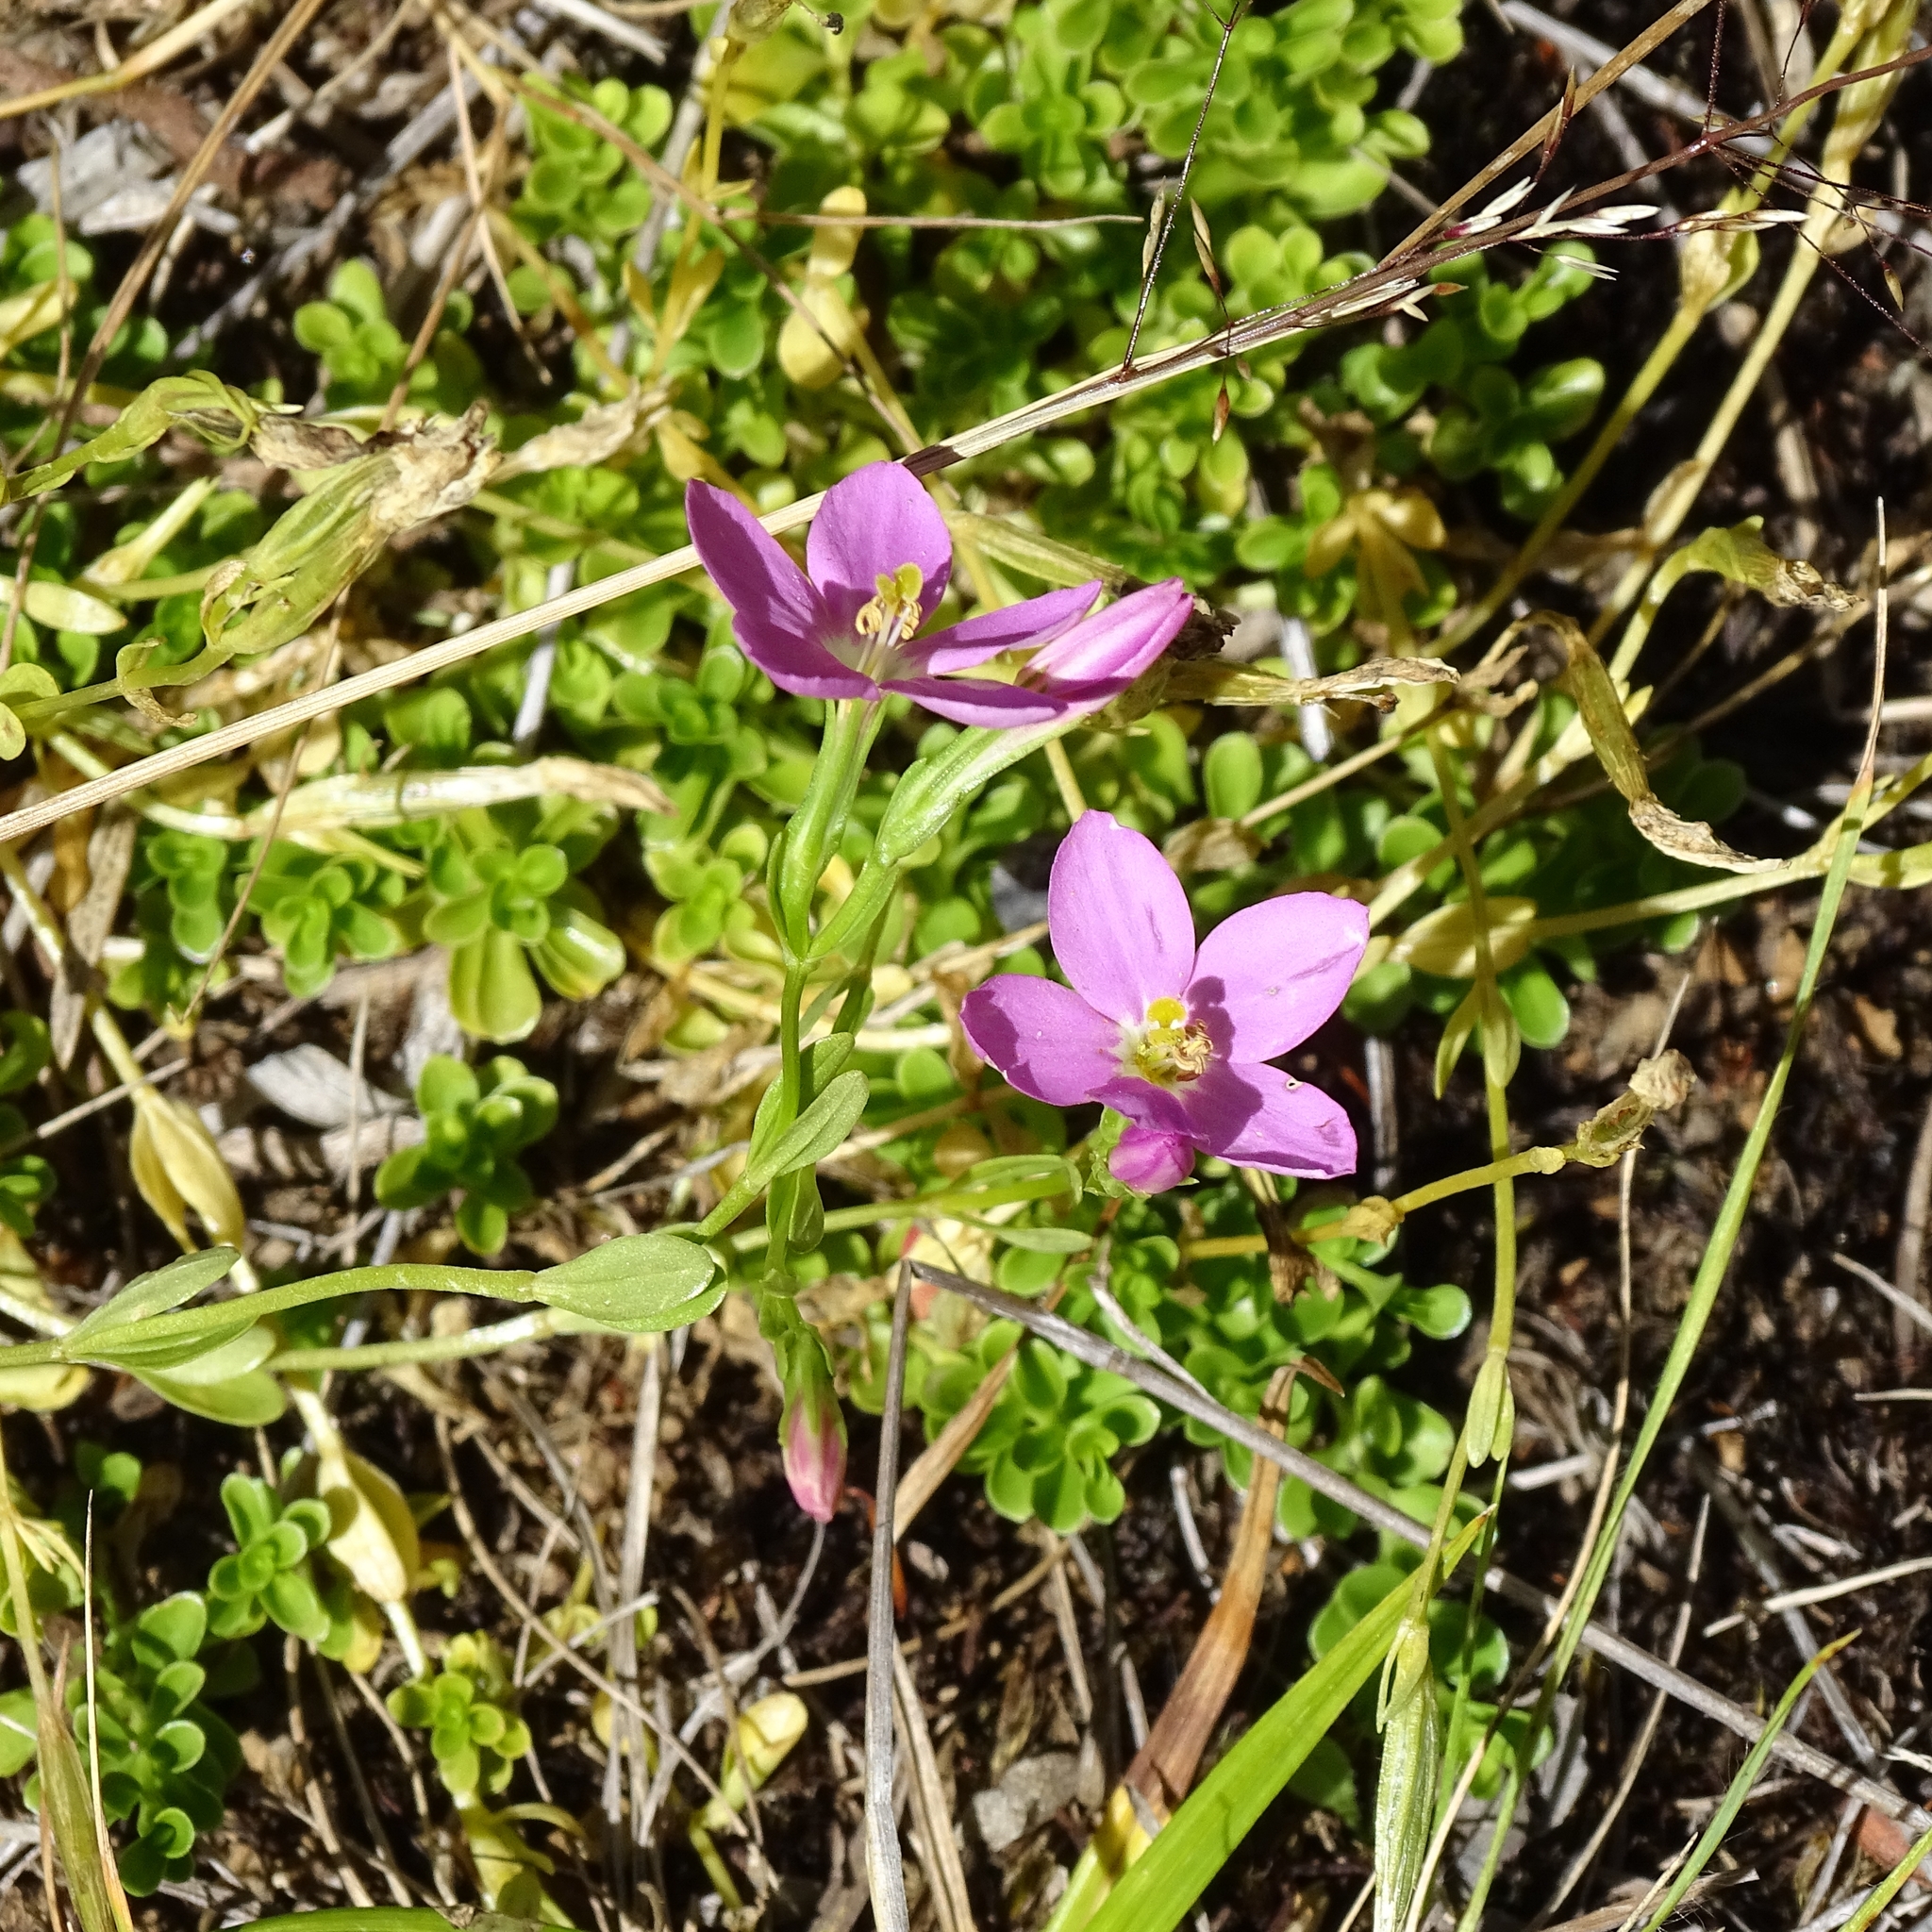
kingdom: Plantae
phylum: Tracheophyta
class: Magnoliopsida
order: Gentianales
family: Gentianaceae
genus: Centaurium
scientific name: Centaurium cachanlahuen
